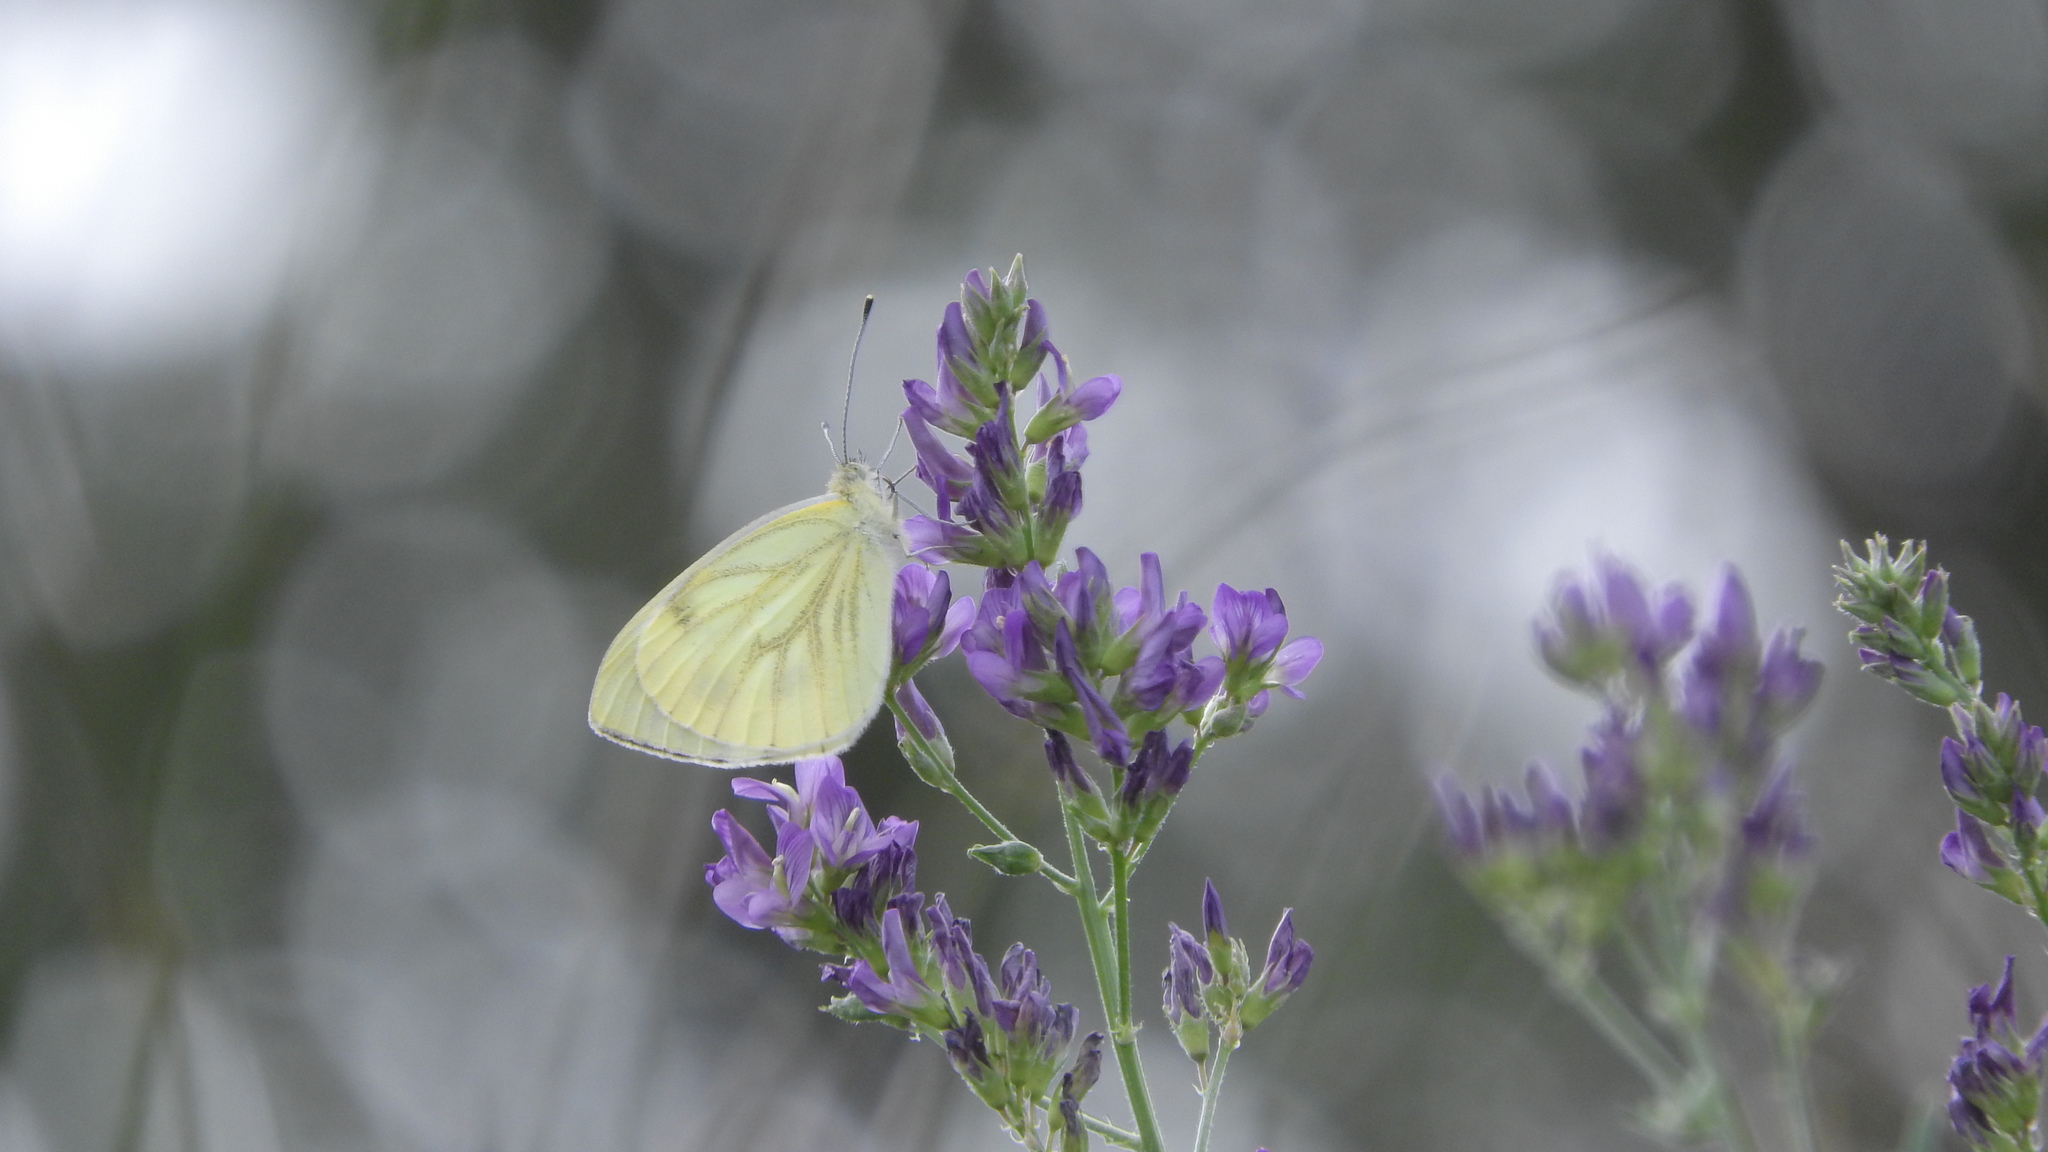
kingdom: Animalia
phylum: Arthropoda
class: Insecta
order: Lepidoptera
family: Pieridae
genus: Pieris
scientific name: Pieris napi
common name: Green-veined white
